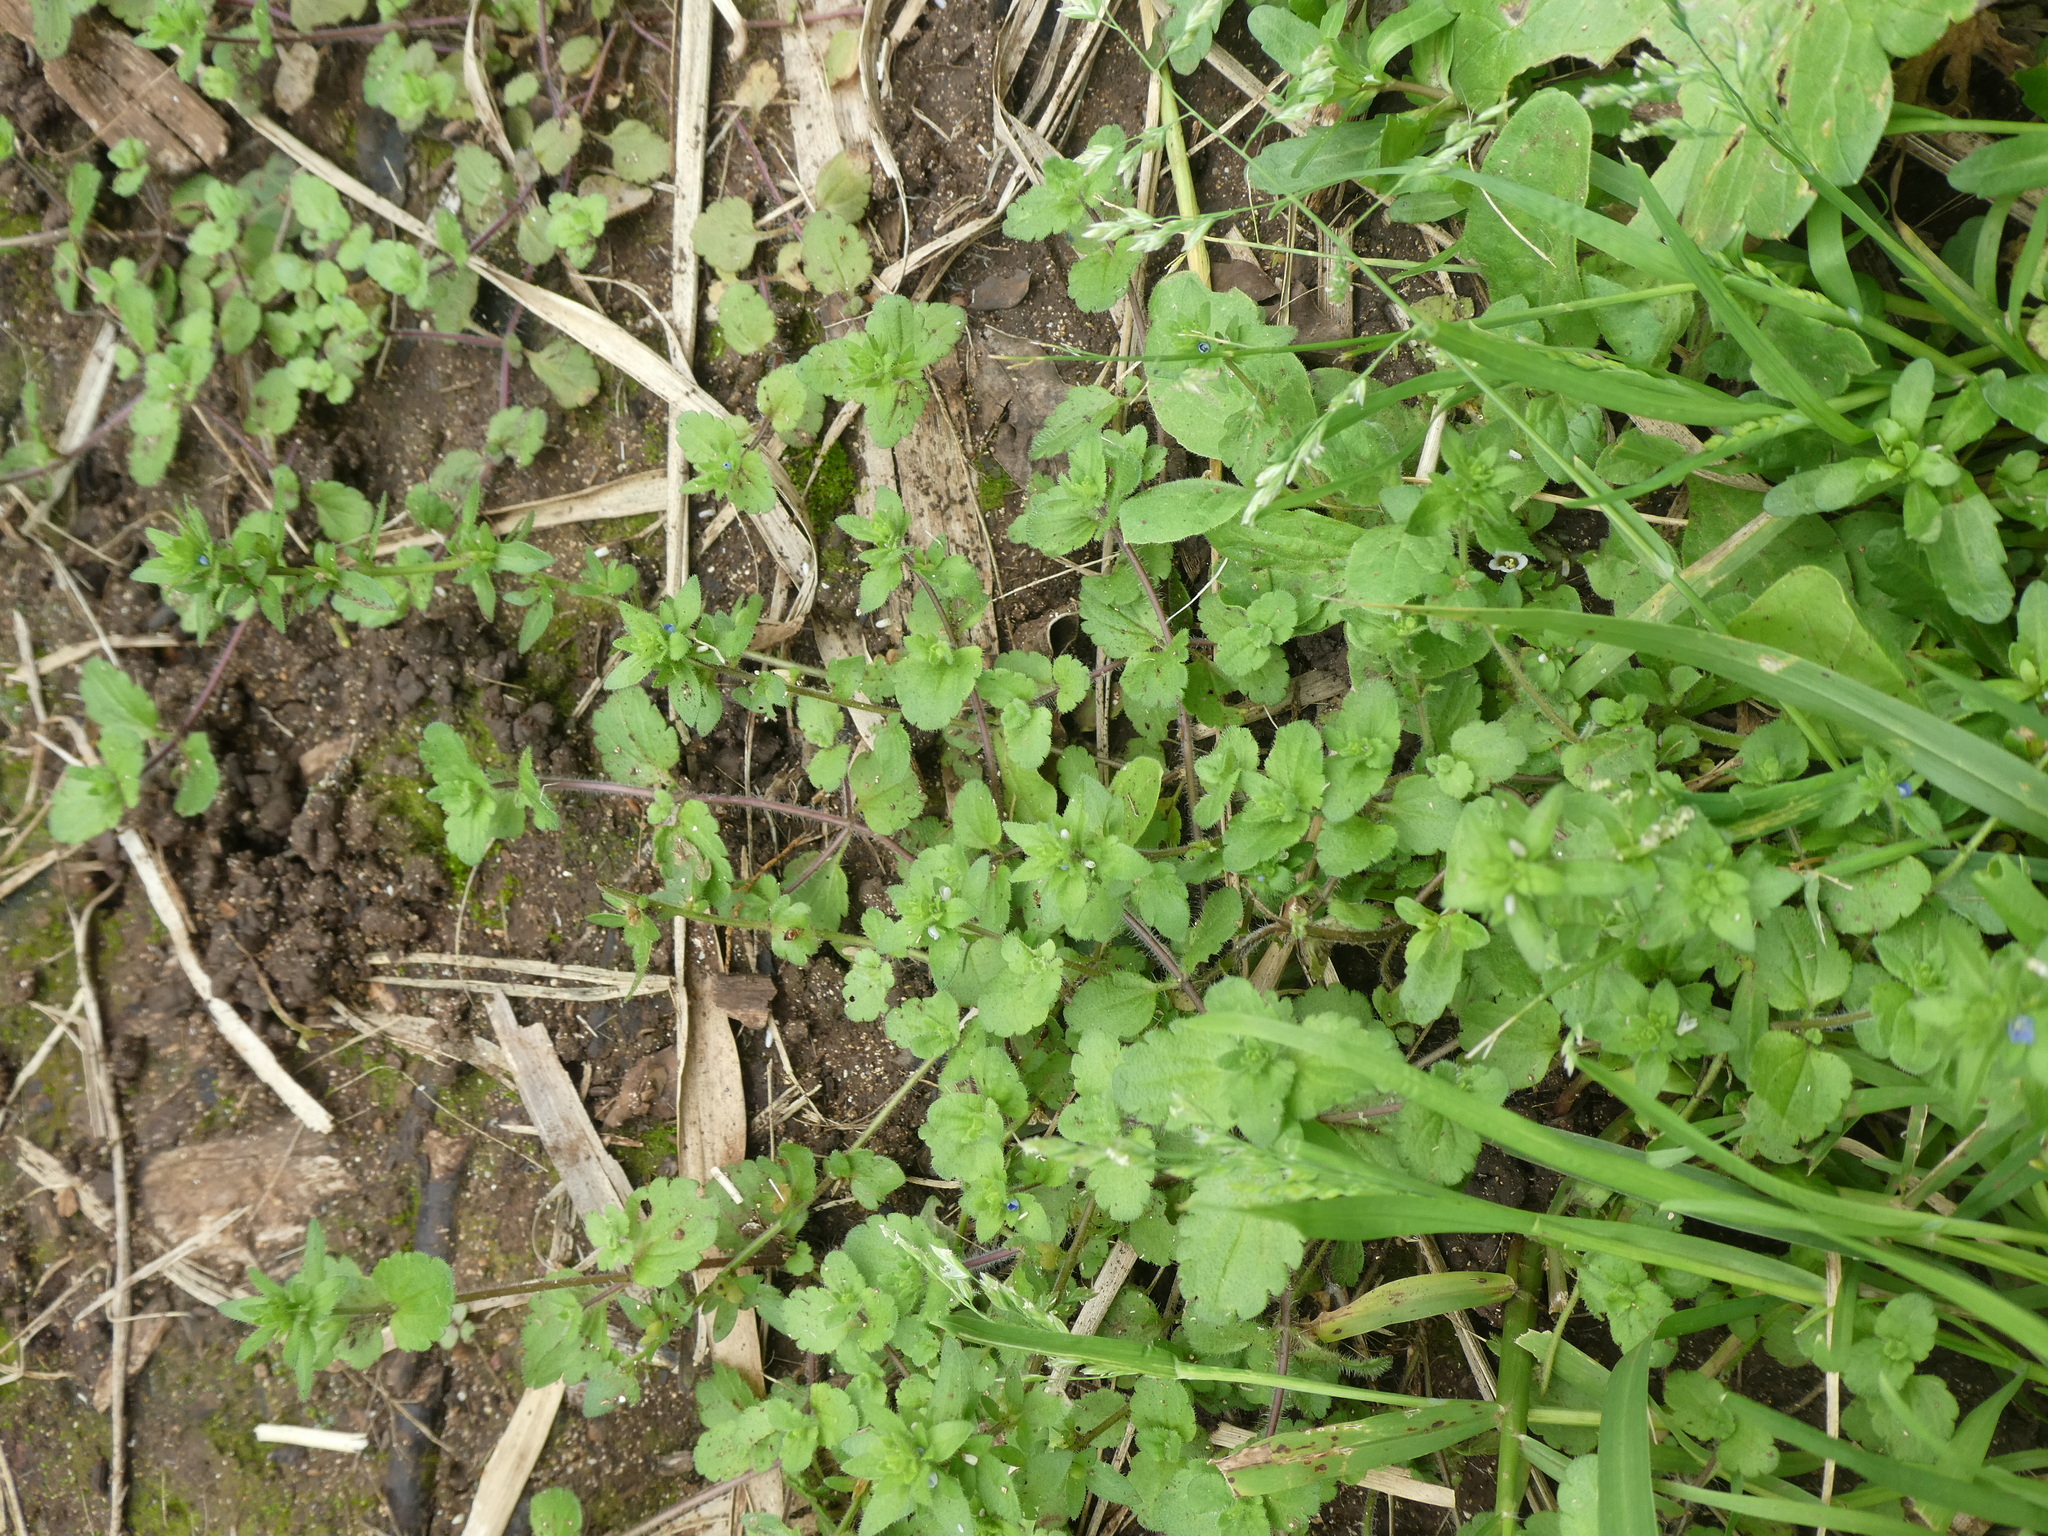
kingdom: Plantae
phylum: Tracheophyta
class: Magnoliopsida
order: Lamiales
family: Plantaginaceae
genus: Veronica
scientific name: Veronica arvensis
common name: Corn speedwell
